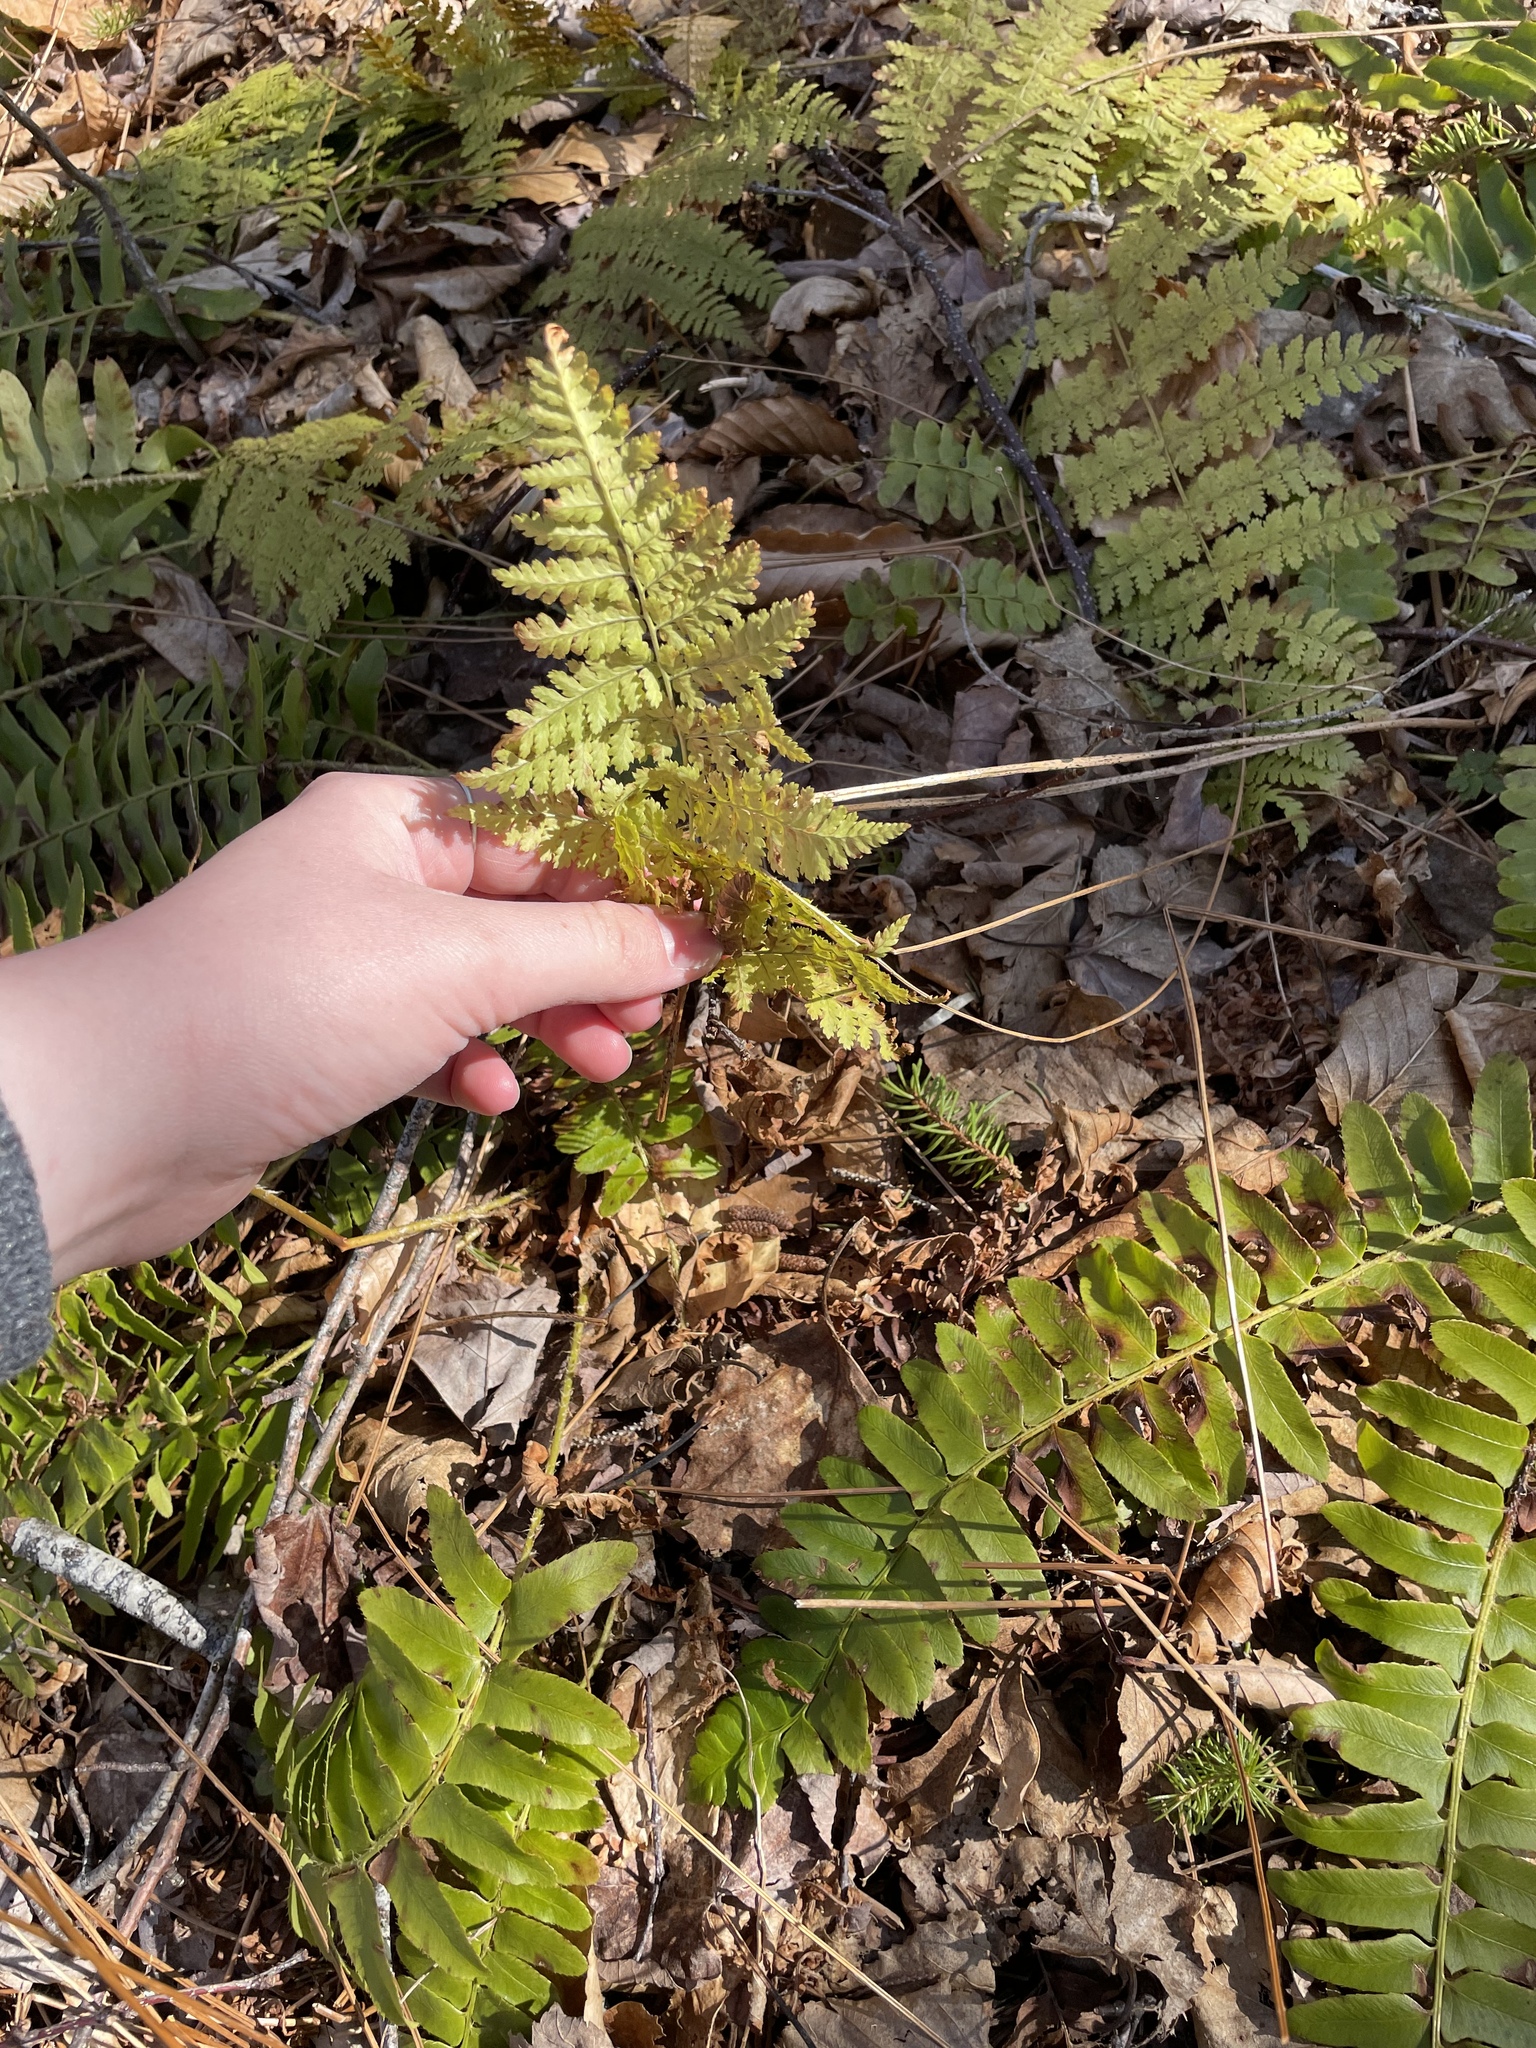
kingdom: Plantae
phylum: Tracheophyta
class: Polypodiopsida
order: Polypodiales
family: Dryopteridaceae
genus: Dryopteris
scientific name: Dryopteris intermedia
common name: Evergreen wood fern
